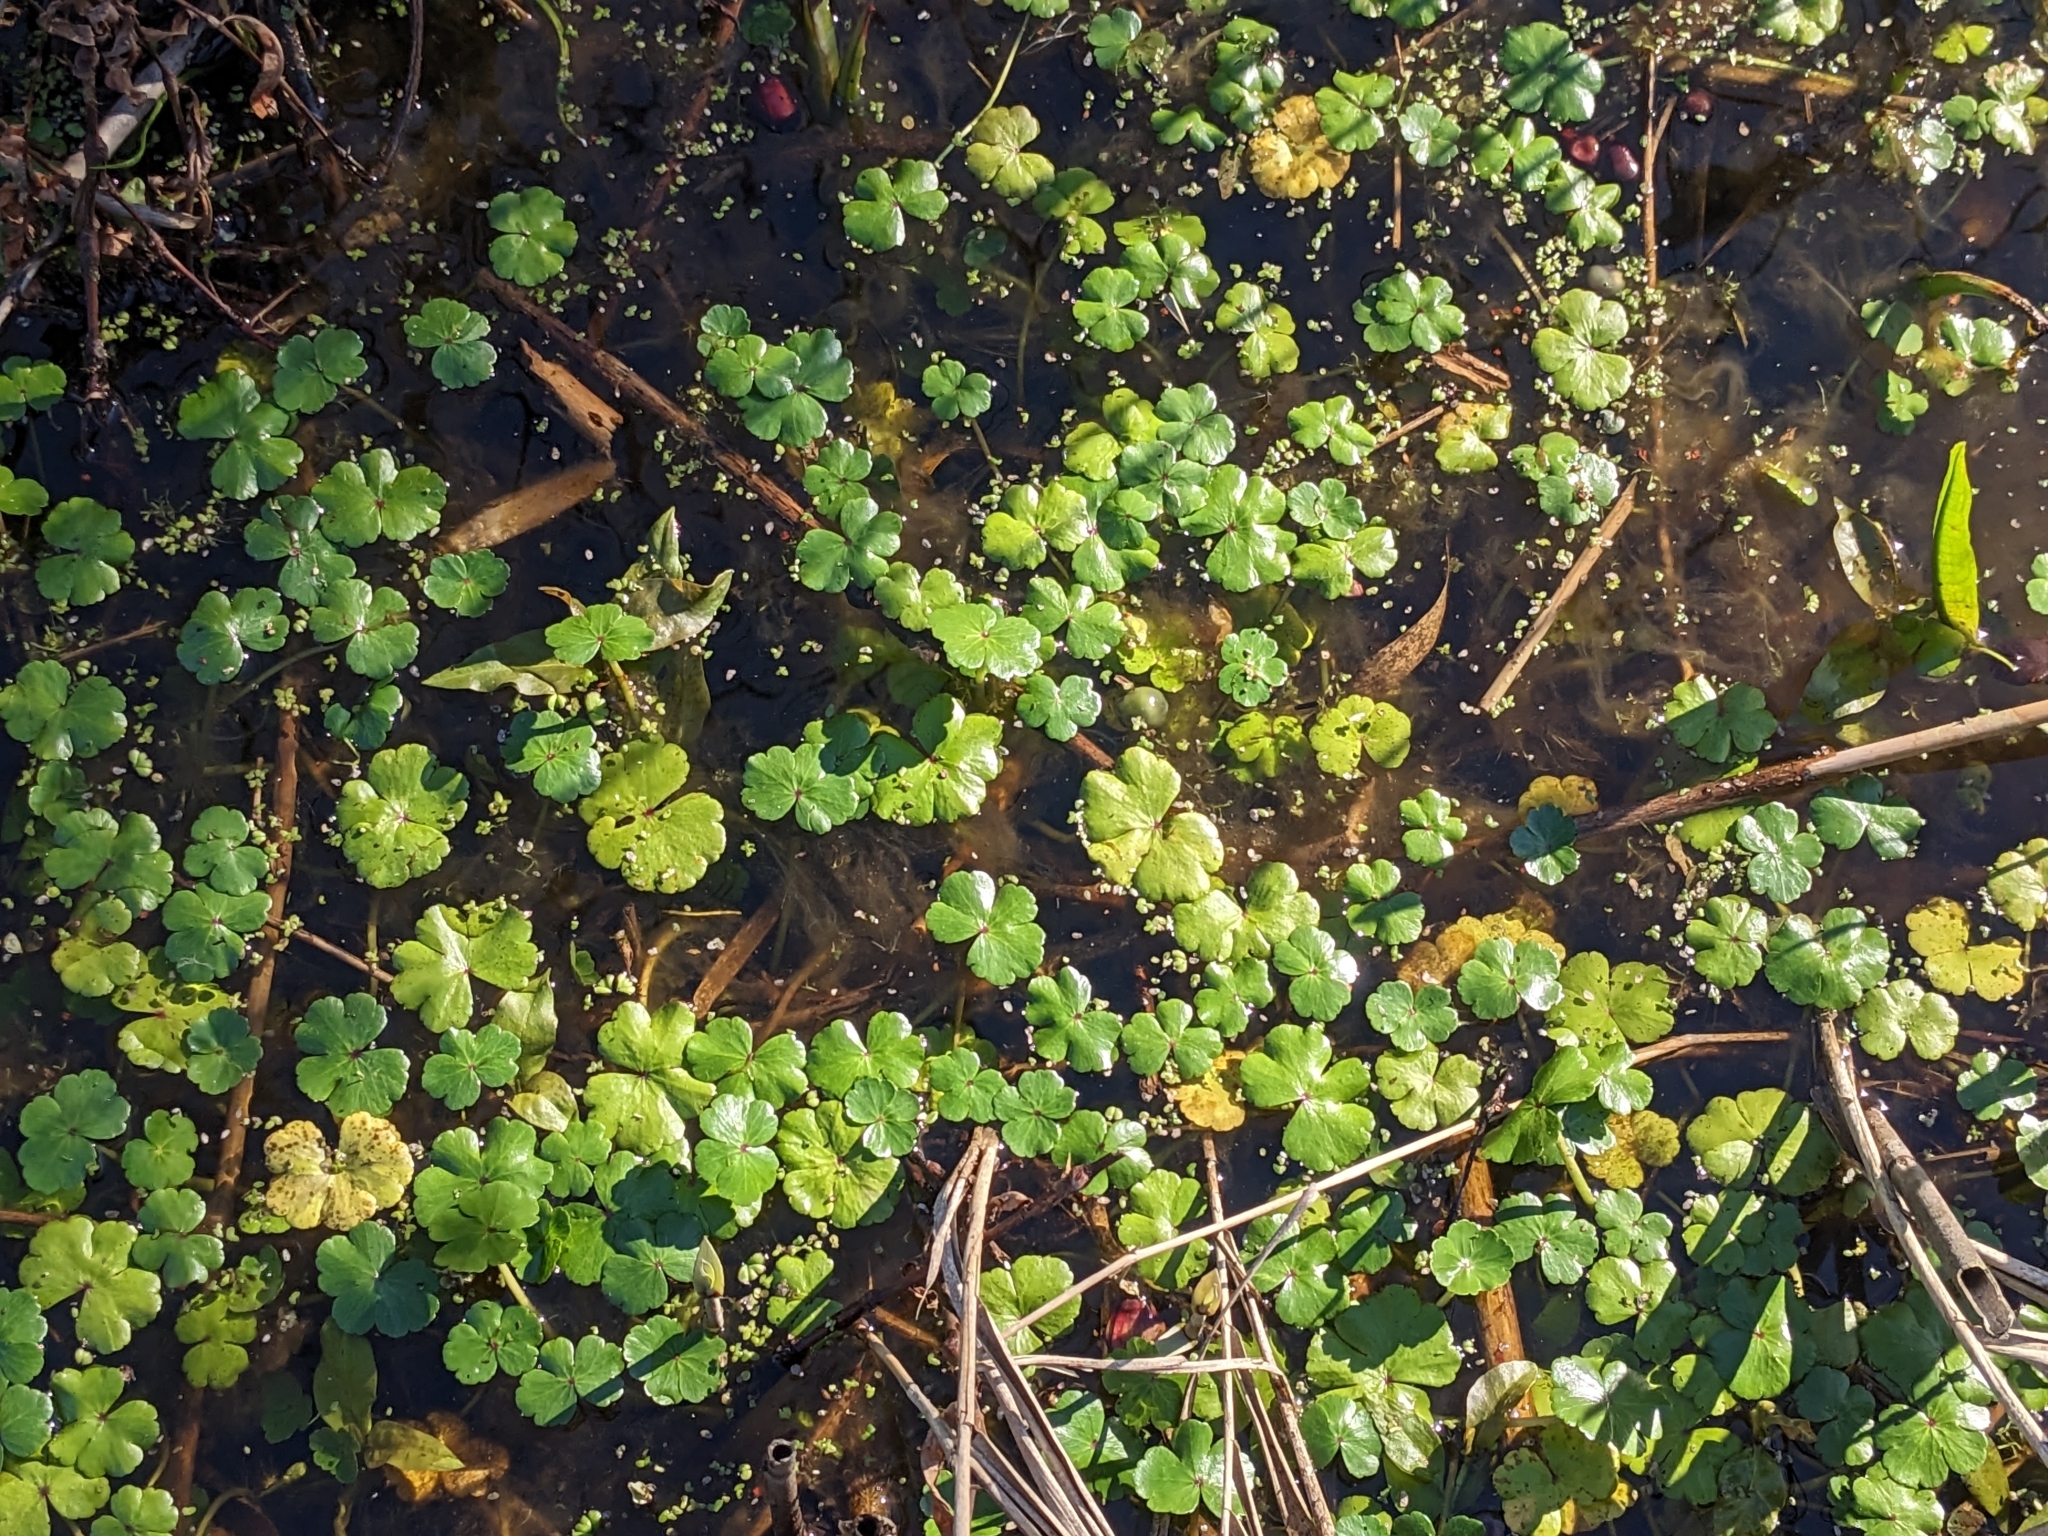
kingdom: Plantae
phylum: Tracheophyta
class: Magnoliopsida
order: Apiales
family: Araliaceae
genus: Hydrocotyle
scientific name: Hydrocotyle ranunculoides
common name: Floating pennywort
